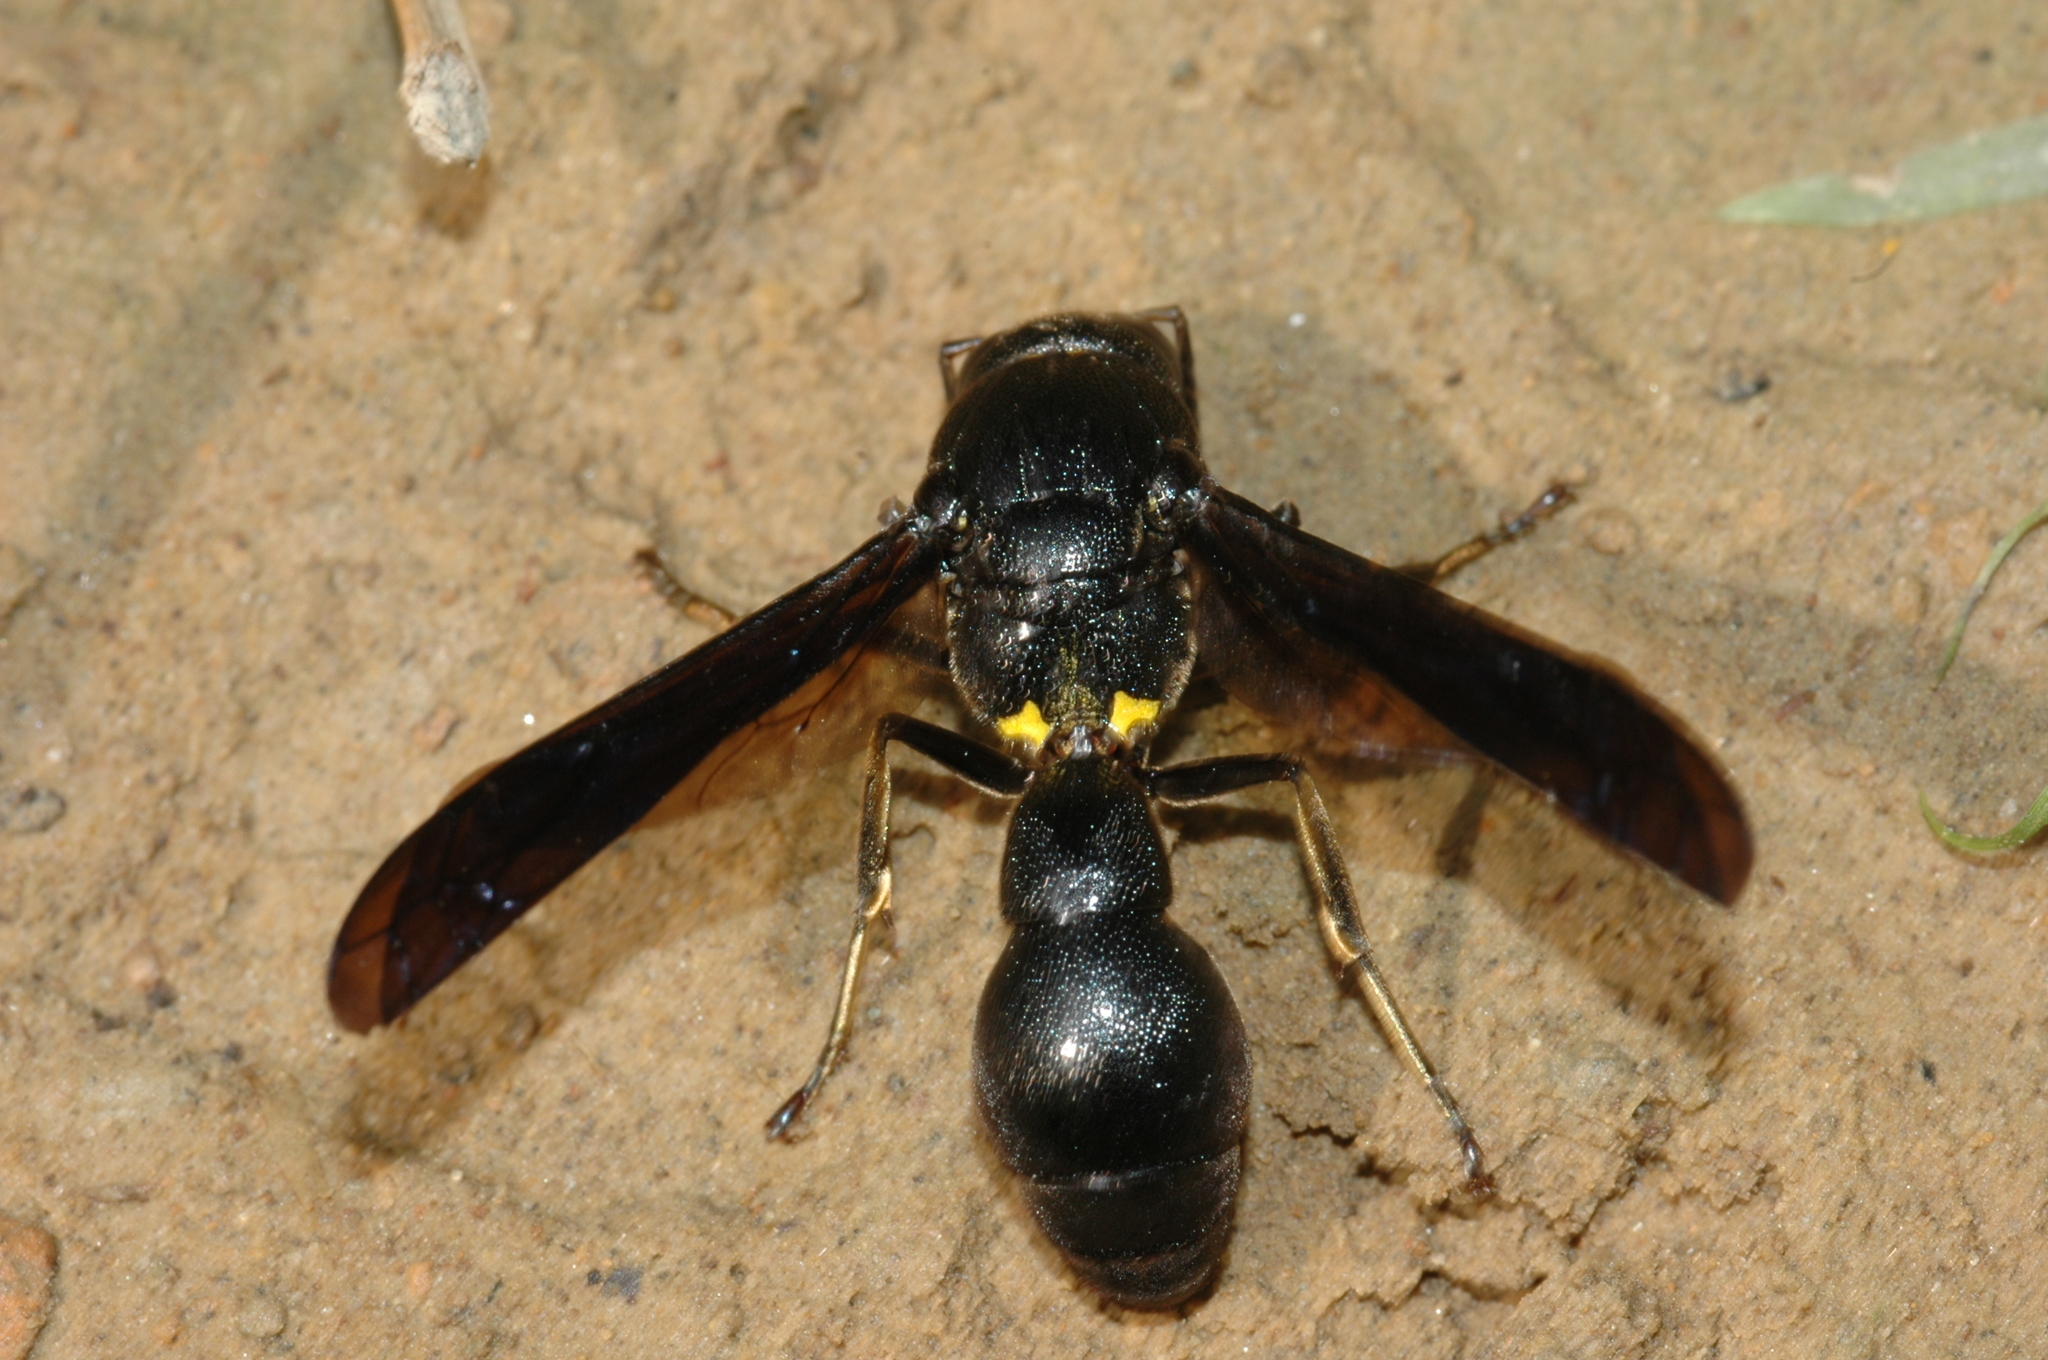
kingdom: Animalia
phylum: Arthropoda
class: Insecta
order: Hymenoptera
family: Eumenidae
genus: Pseudozumia
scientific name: Pseudozumia indosinensis
